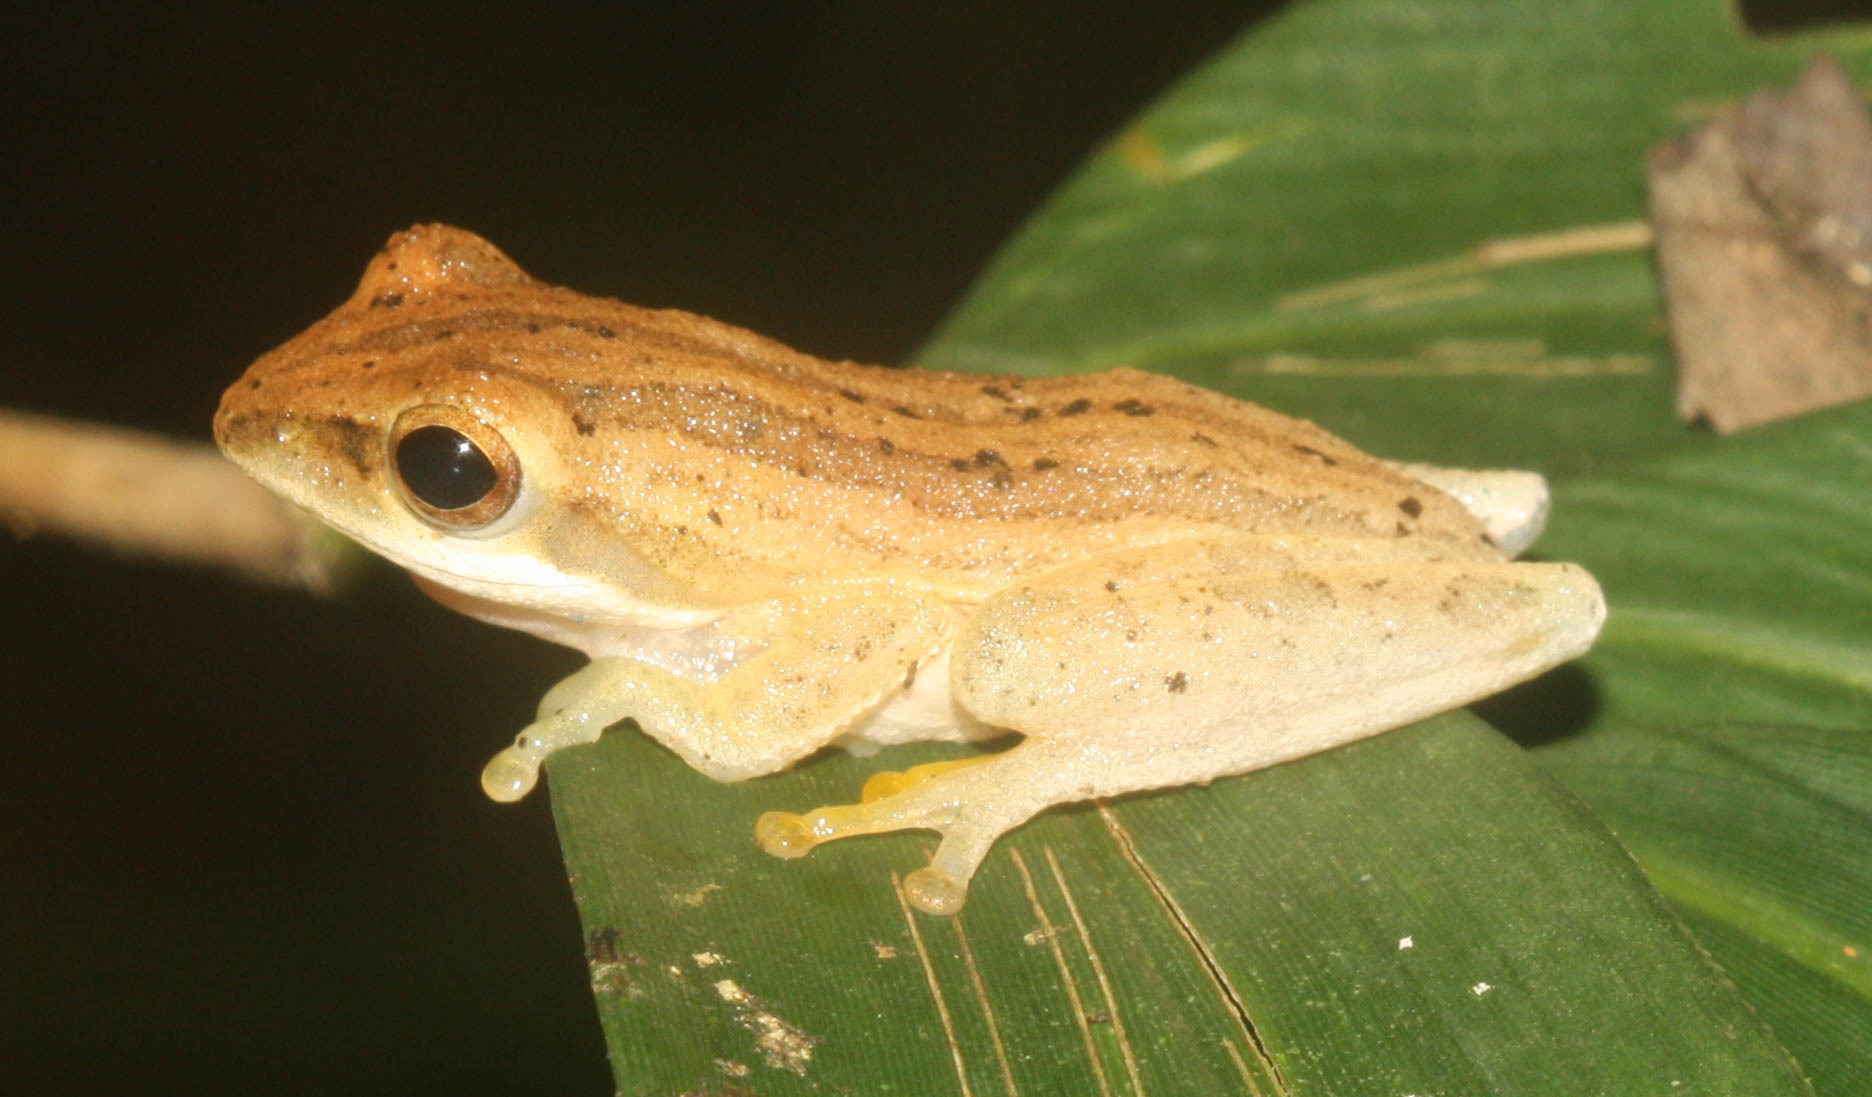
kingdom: Animalia
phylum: Chordata
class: Amphibia
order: Anura
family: Rhacophoridae
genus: Chiromantis
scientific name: Chiromantis doriae
